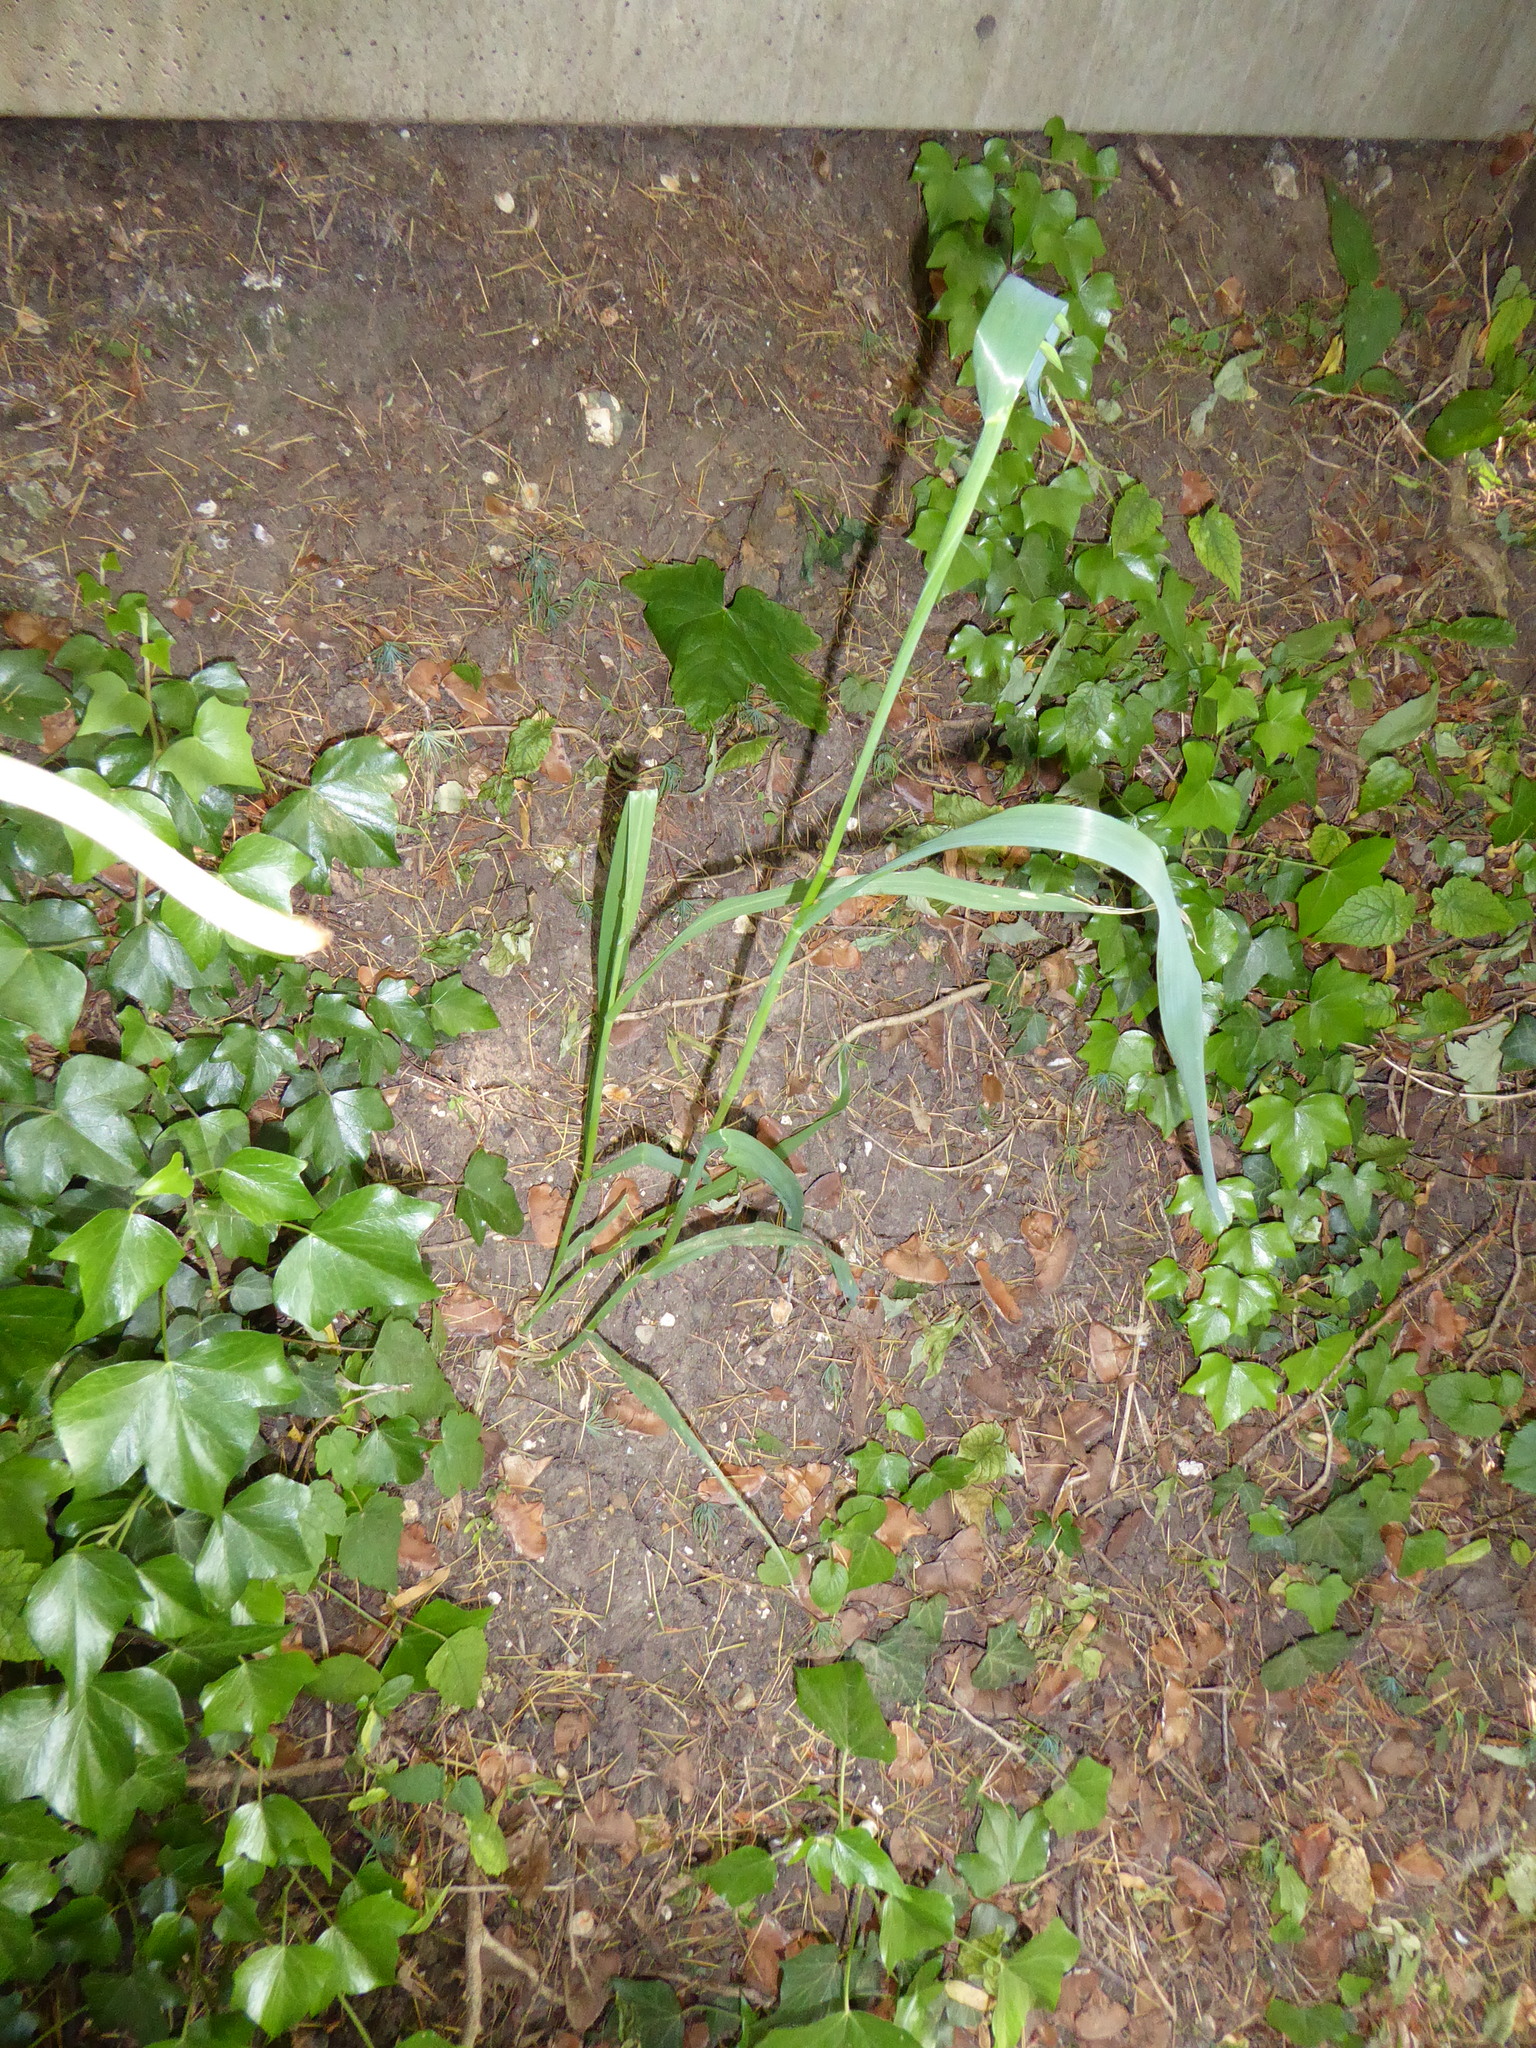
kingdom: Plantae
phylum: Tracheophyta
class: Liliopsida
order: Asparagales
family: Amaryllidaceae
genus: Allium
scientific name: Allium cristophii
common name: Persian onion
